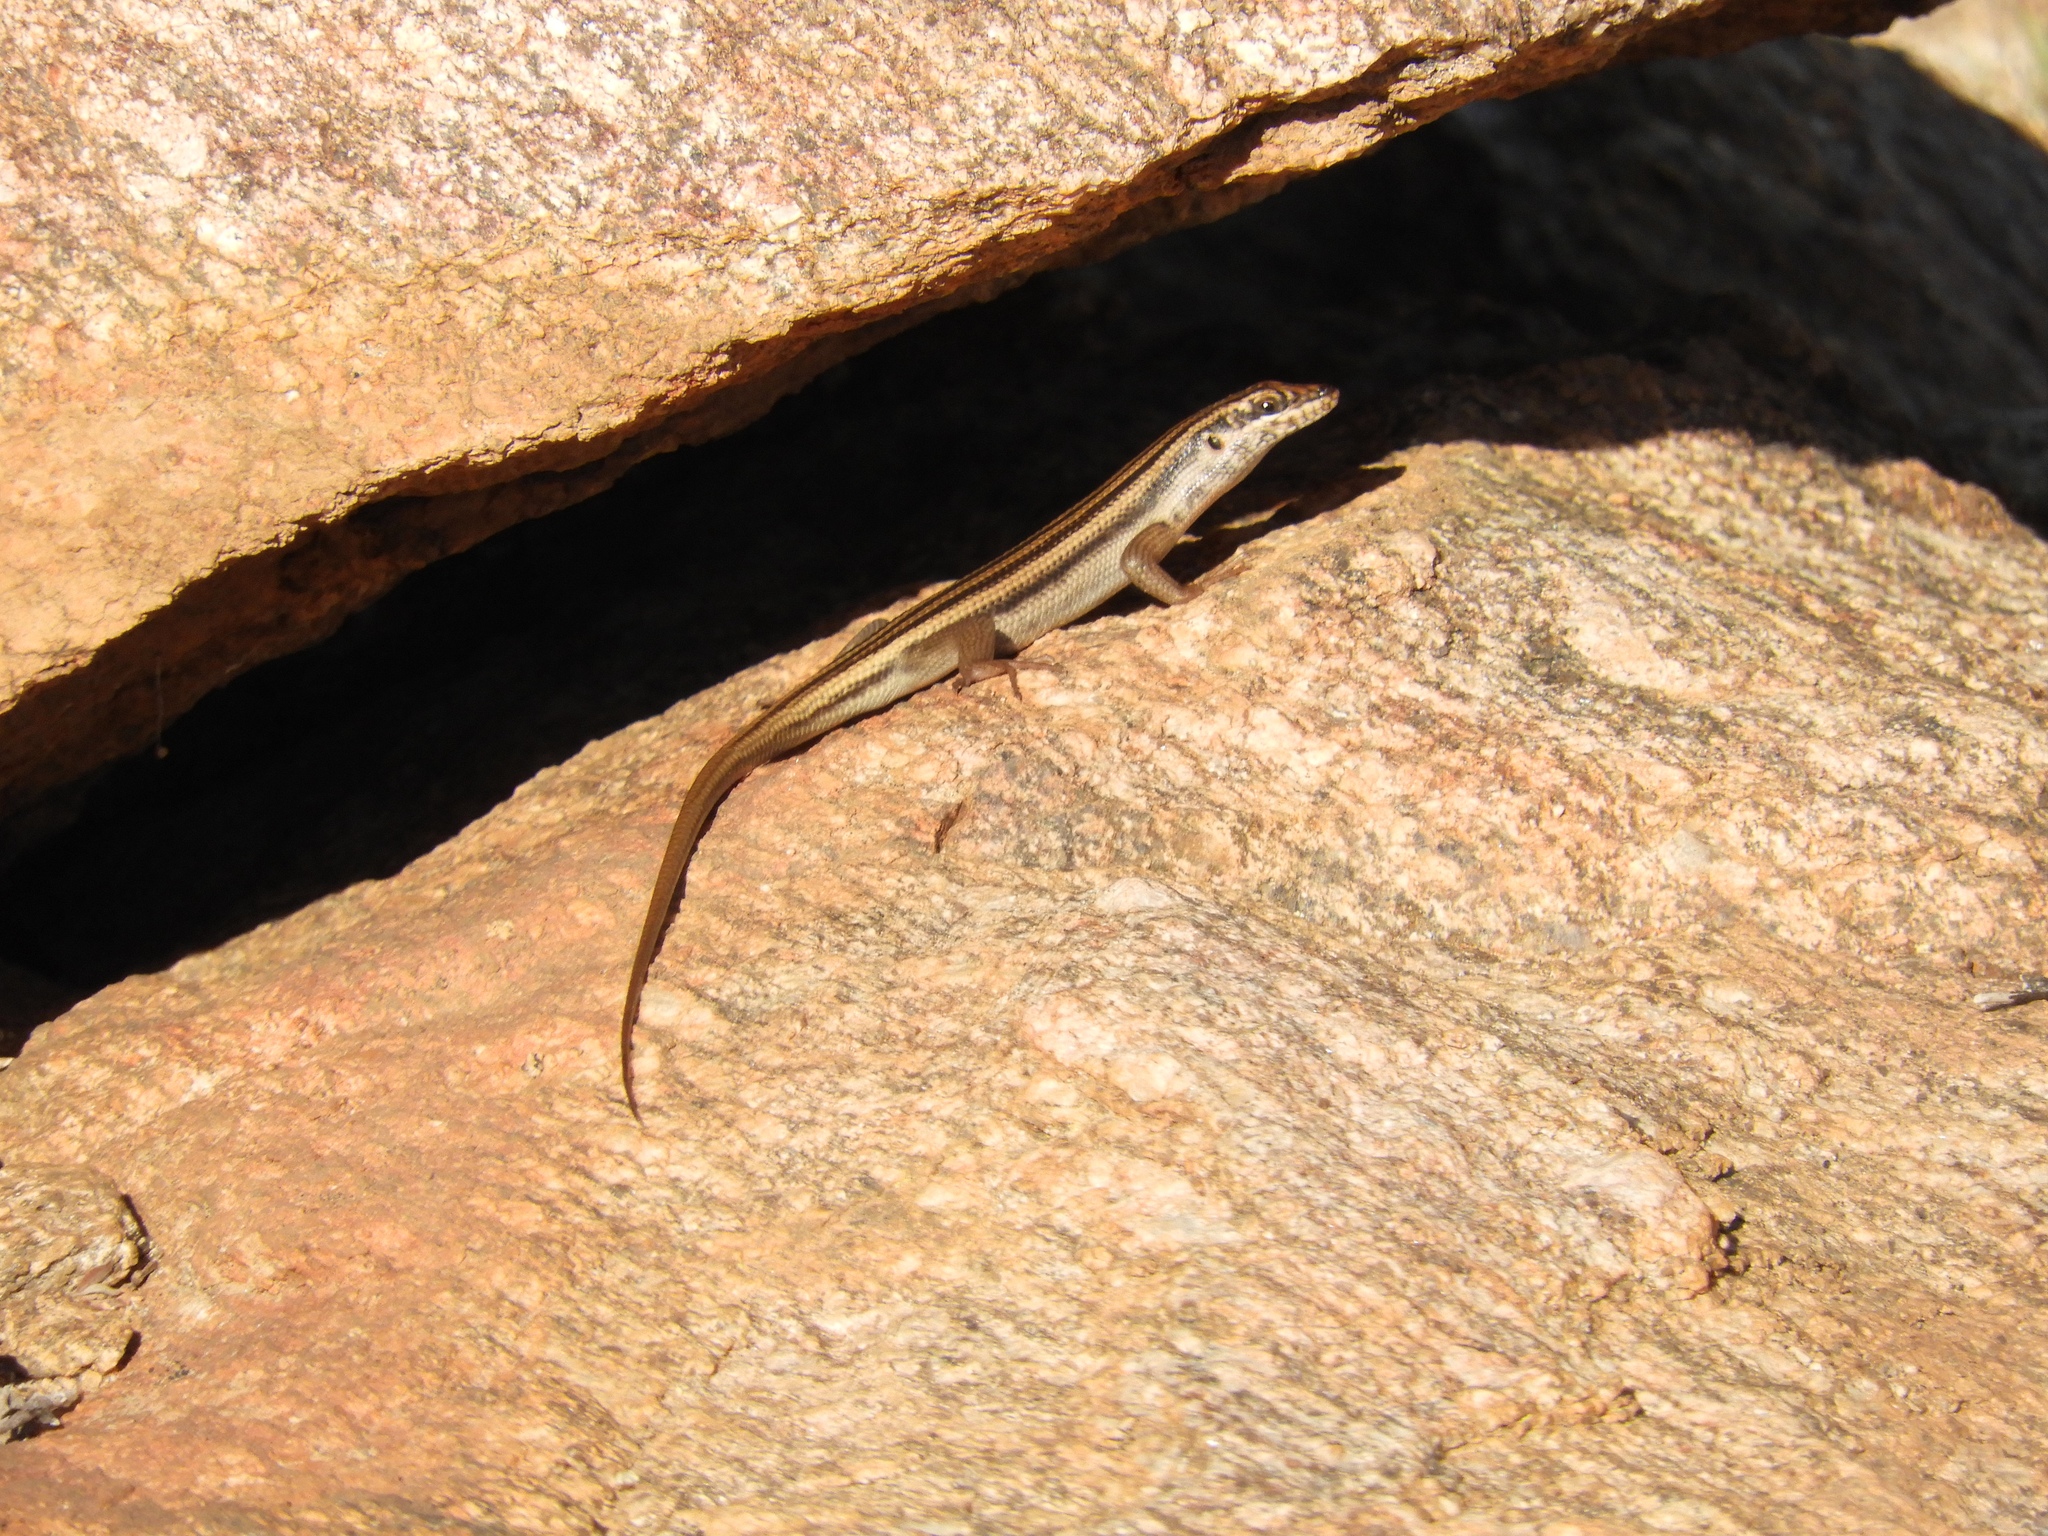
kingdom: Animalia
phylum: Chordata
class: Squamata
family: Scincidae
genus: Trachylepis
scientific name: Trachylepis sulcata
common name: Western rock skink
